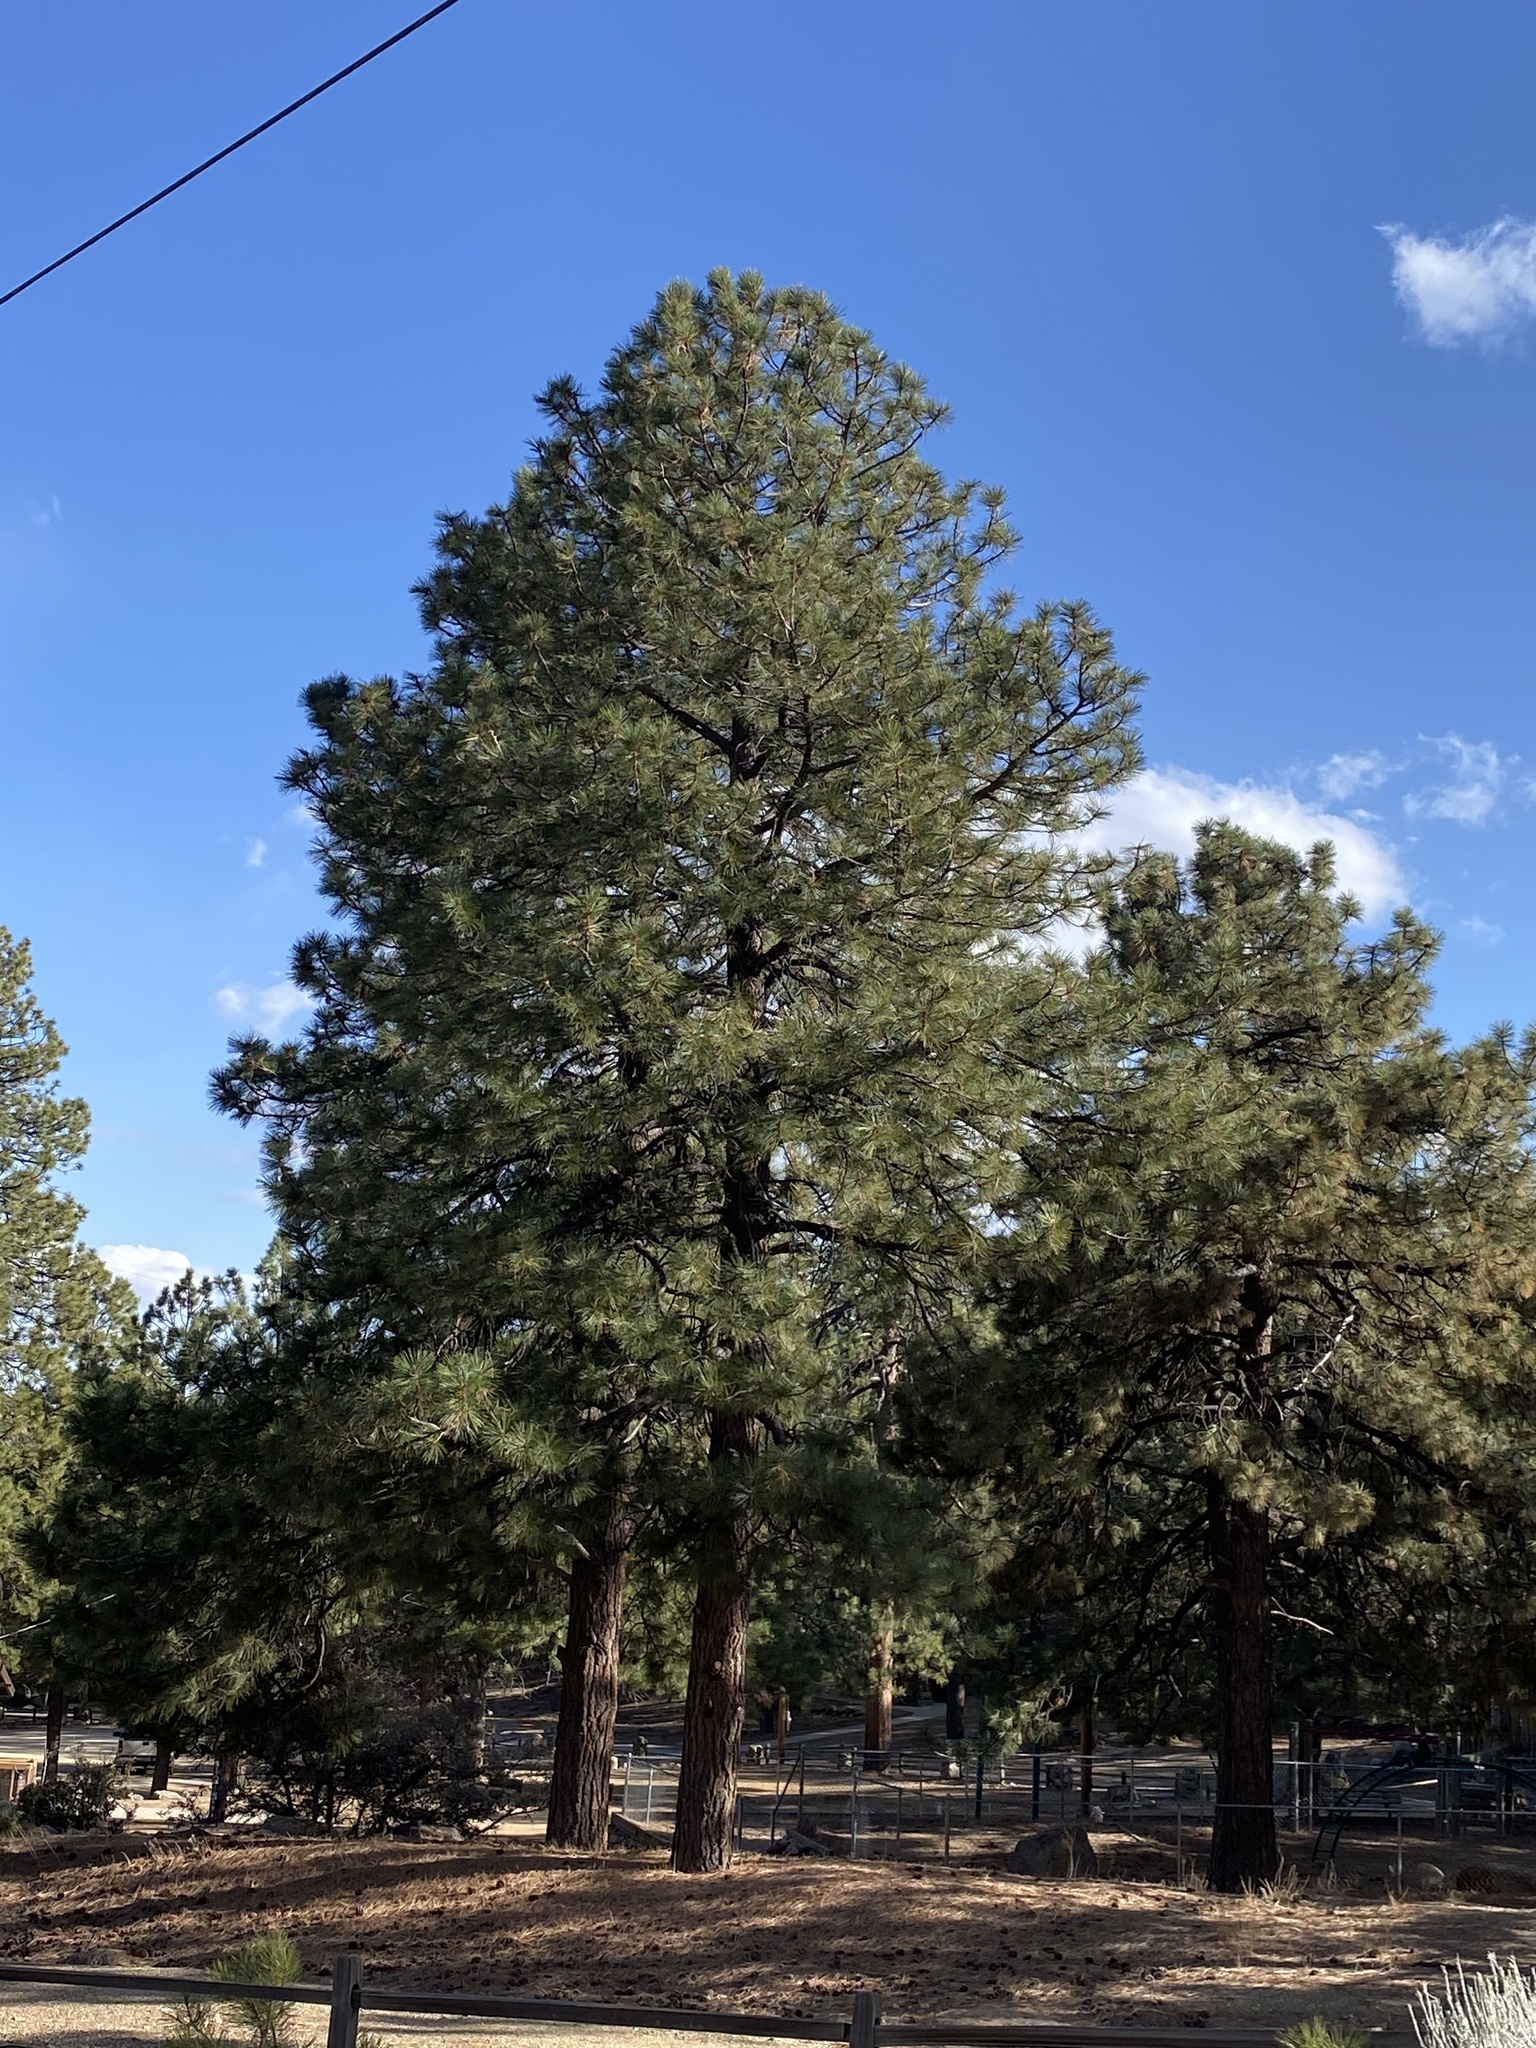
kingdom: Plantae
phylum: Tracheophyta
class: Pinopsida
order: Pinales
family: Pinaceae
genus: Pinus
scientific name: Pinus ponderosa
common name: Western yellow-pine
